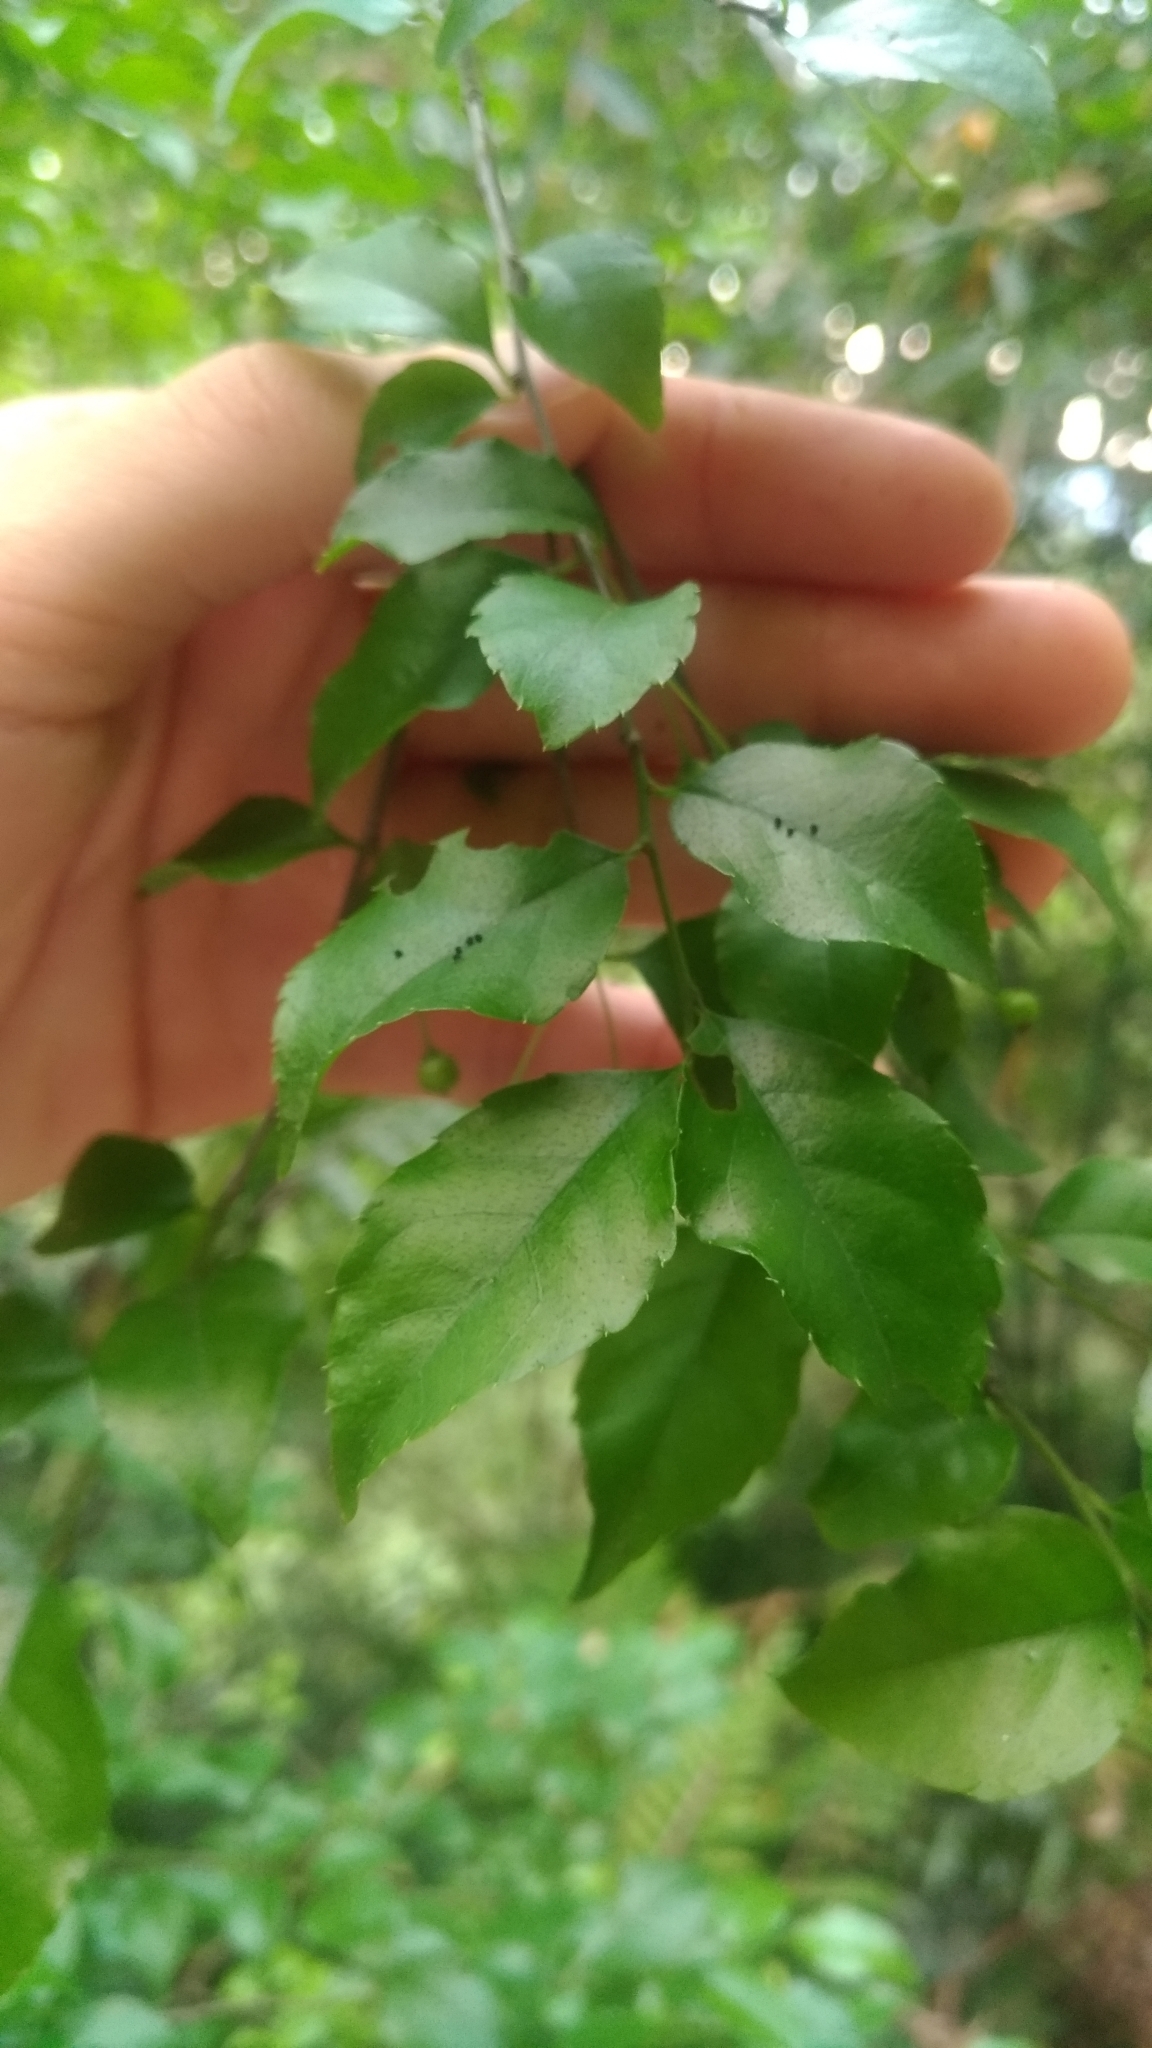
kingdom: Plantae
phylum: Tracheophyta
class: Magnoliopsida
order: Aquifoliales
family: Aquifoliaceae
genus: Ilex
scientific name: Ilex asprella
